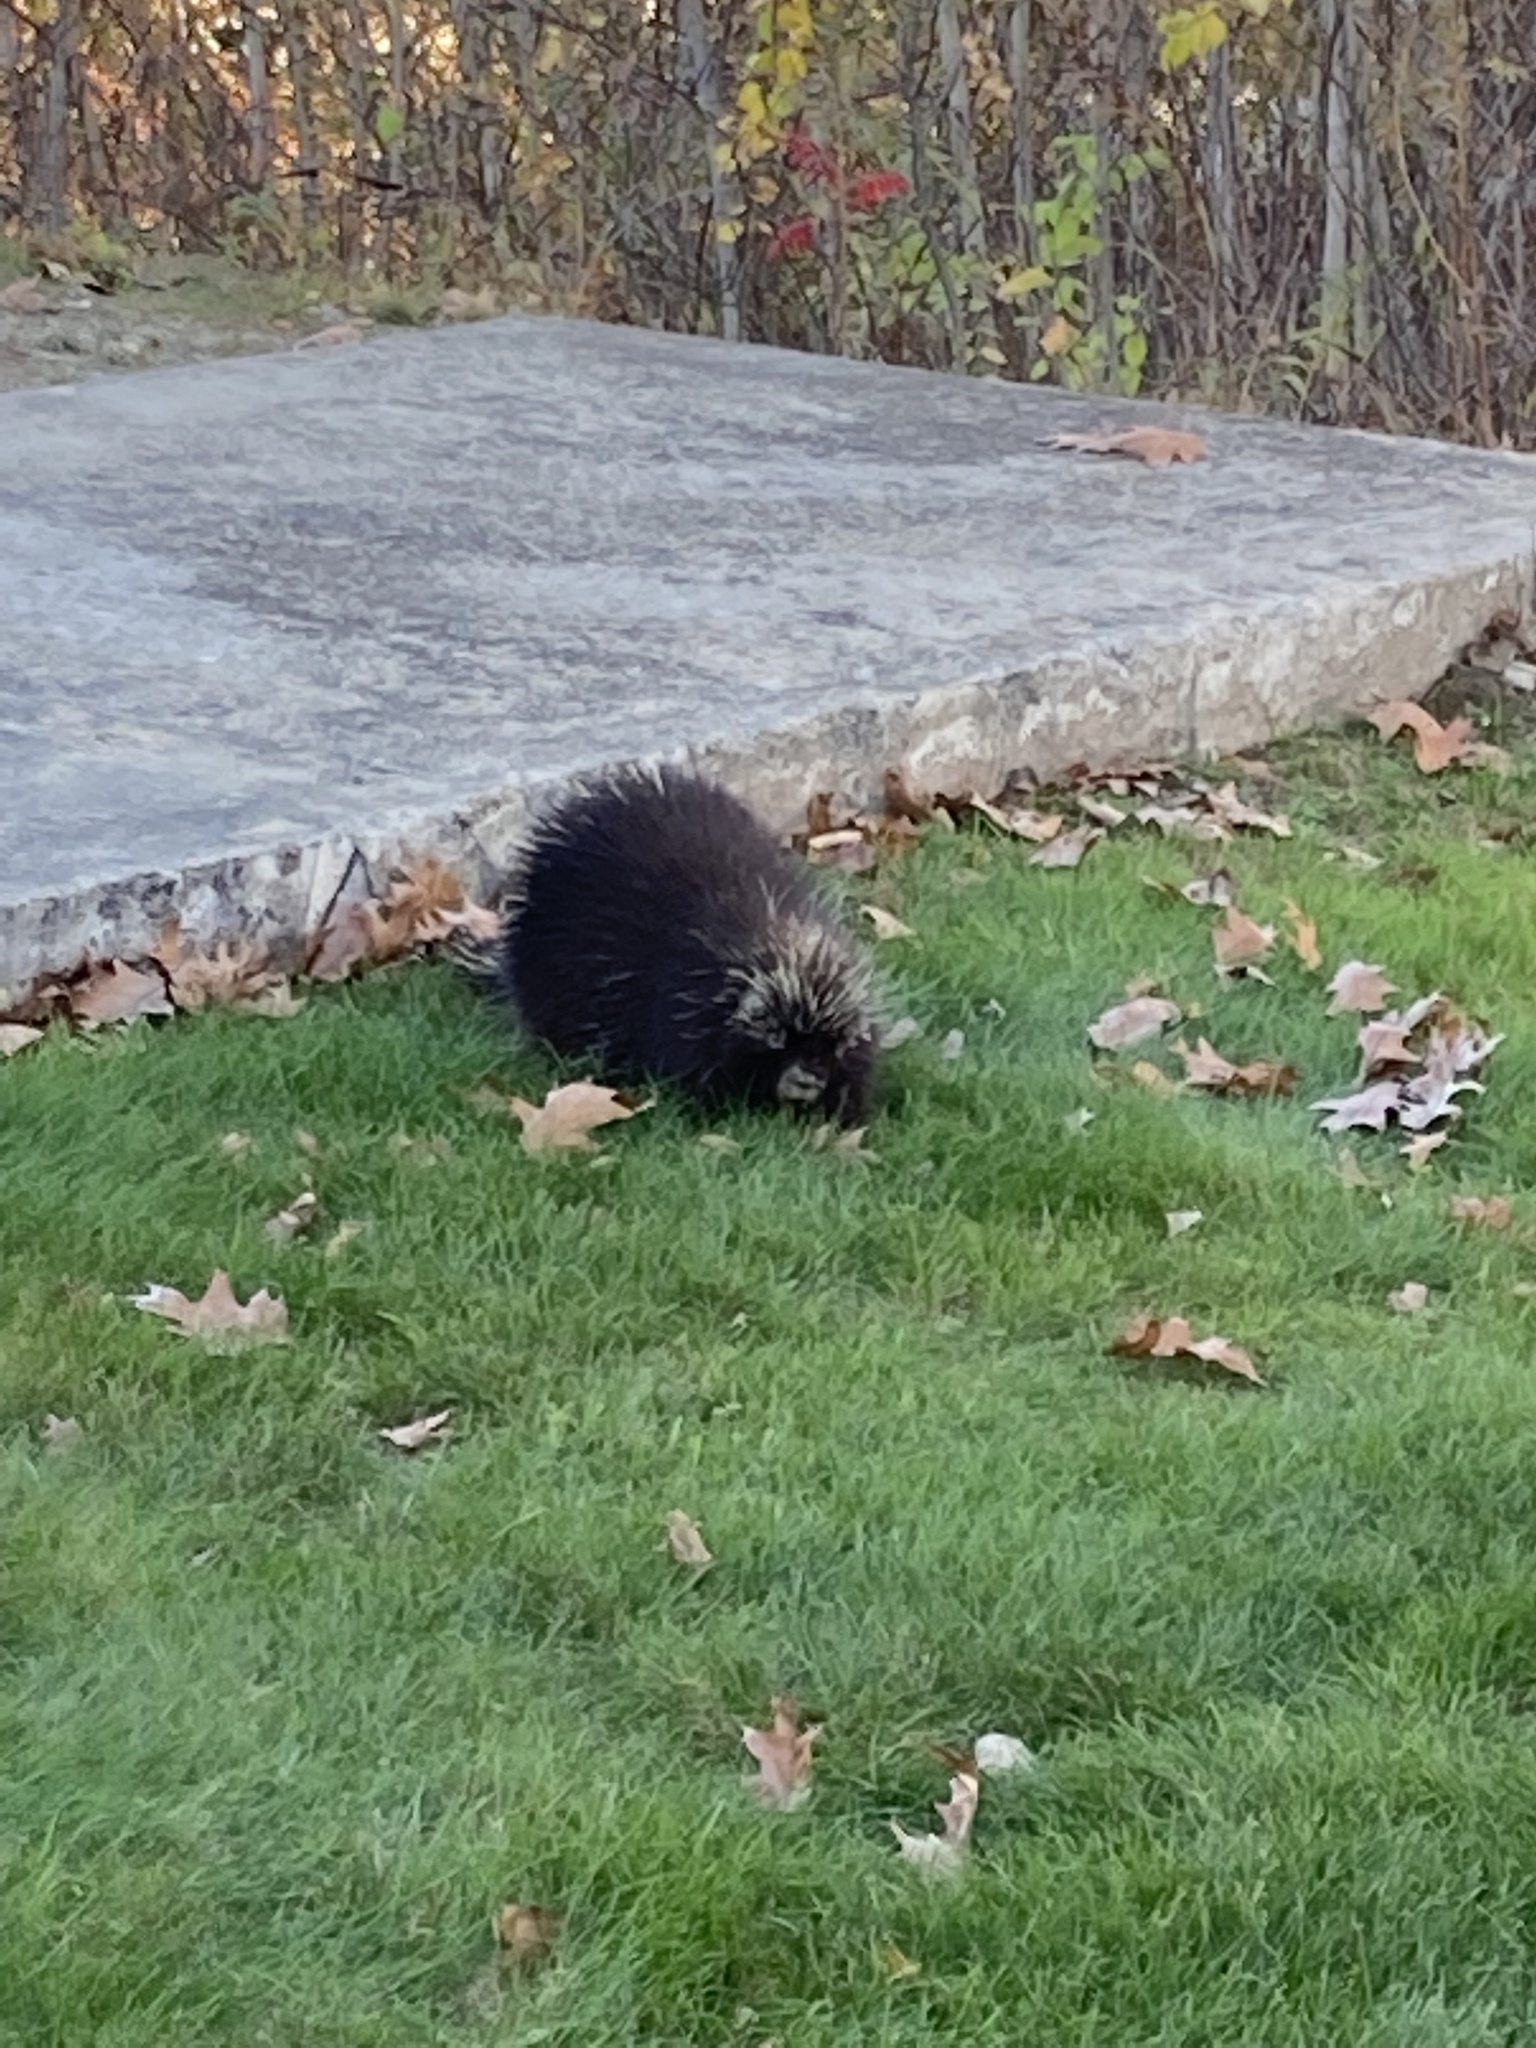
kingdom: Animalia
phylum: Chordata
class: Mammalia
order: Rodentia
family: Erethizontidae
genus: Erethizon
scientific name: Erethizon dorsatus
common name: North american porcupine
